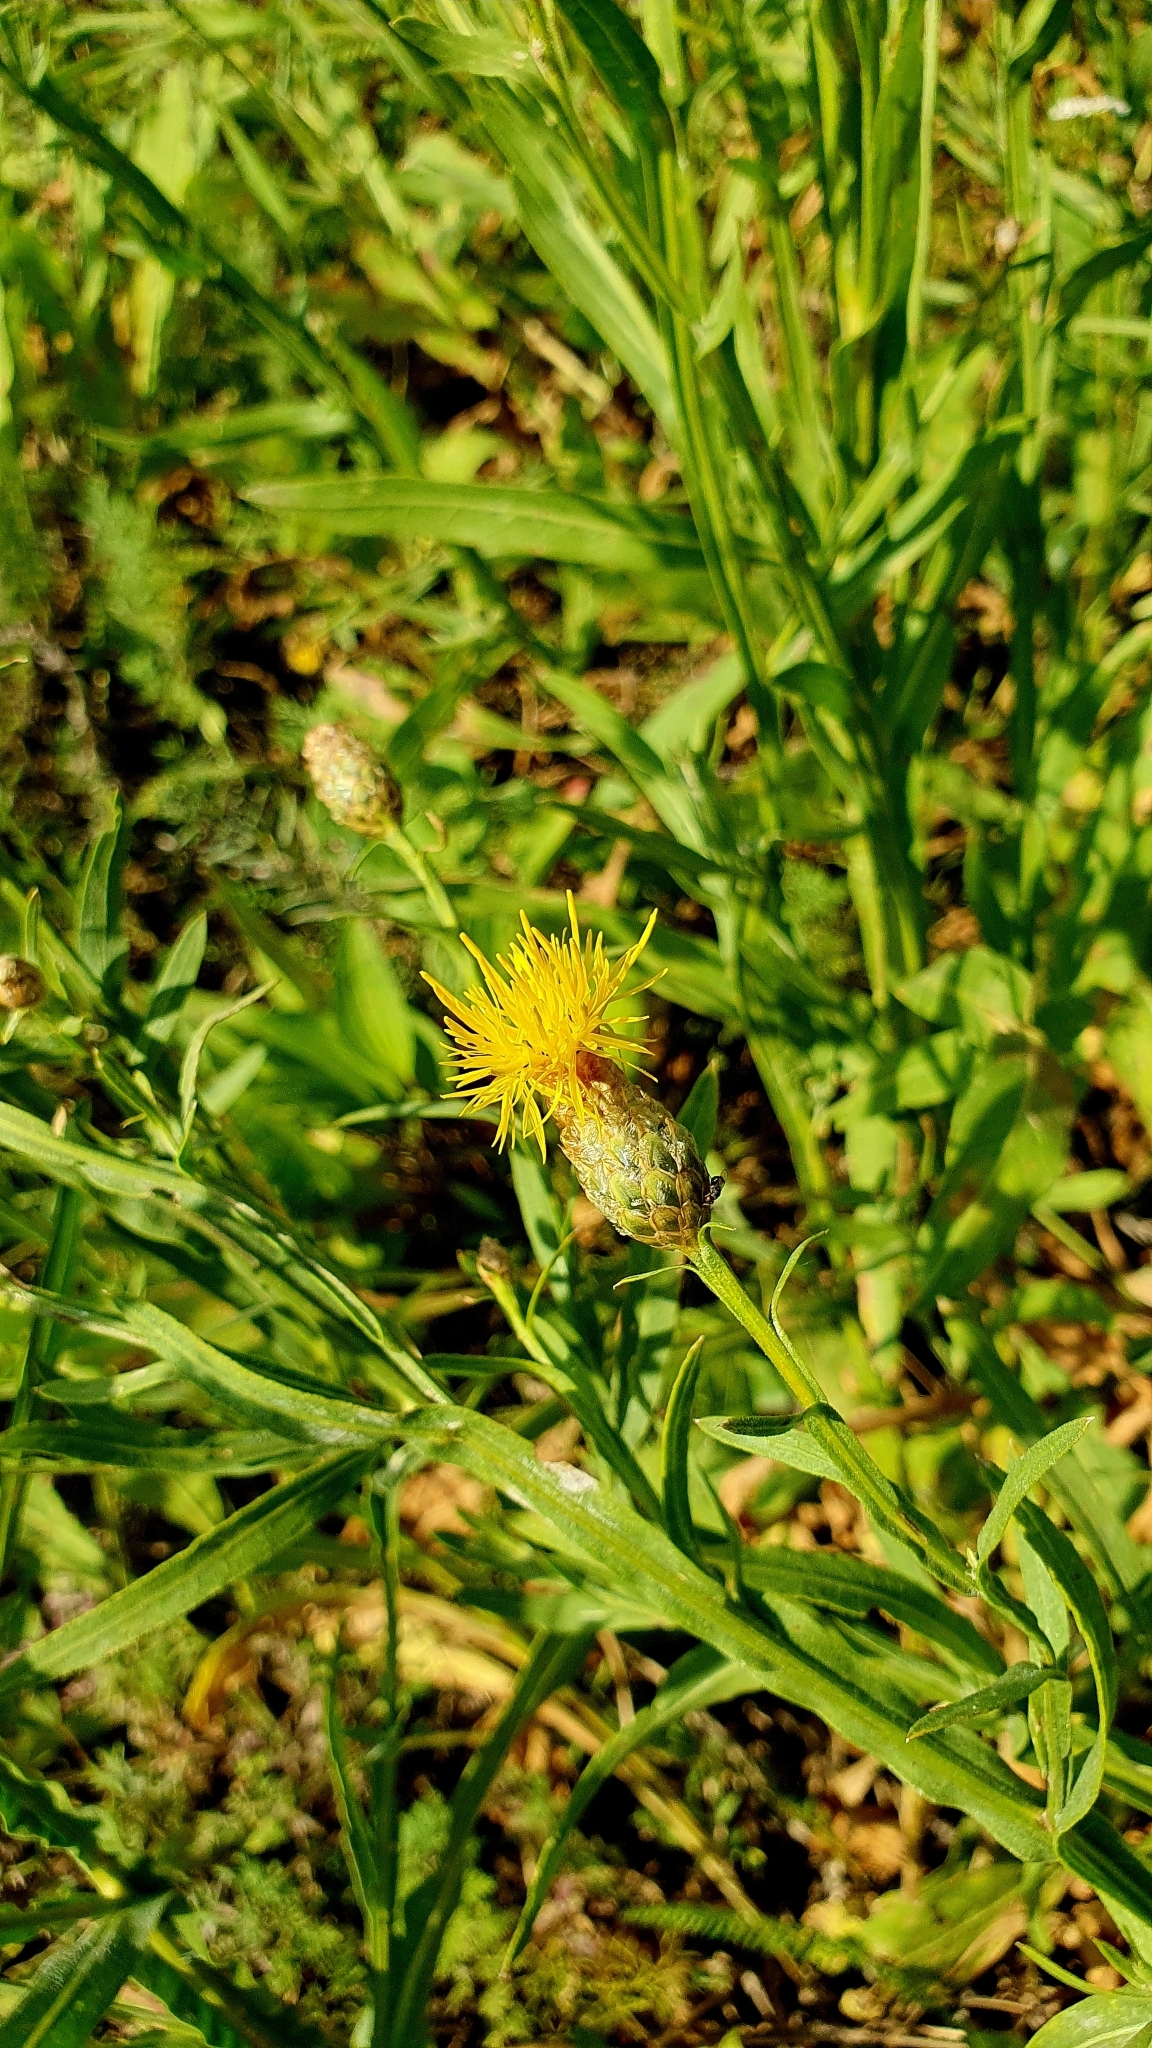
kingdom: Plantae
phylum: Tracheophyta
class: Magnoliopsida
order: Asterales
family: Asteraceae
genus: Centaurea
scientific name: Centaurea glastifolia
